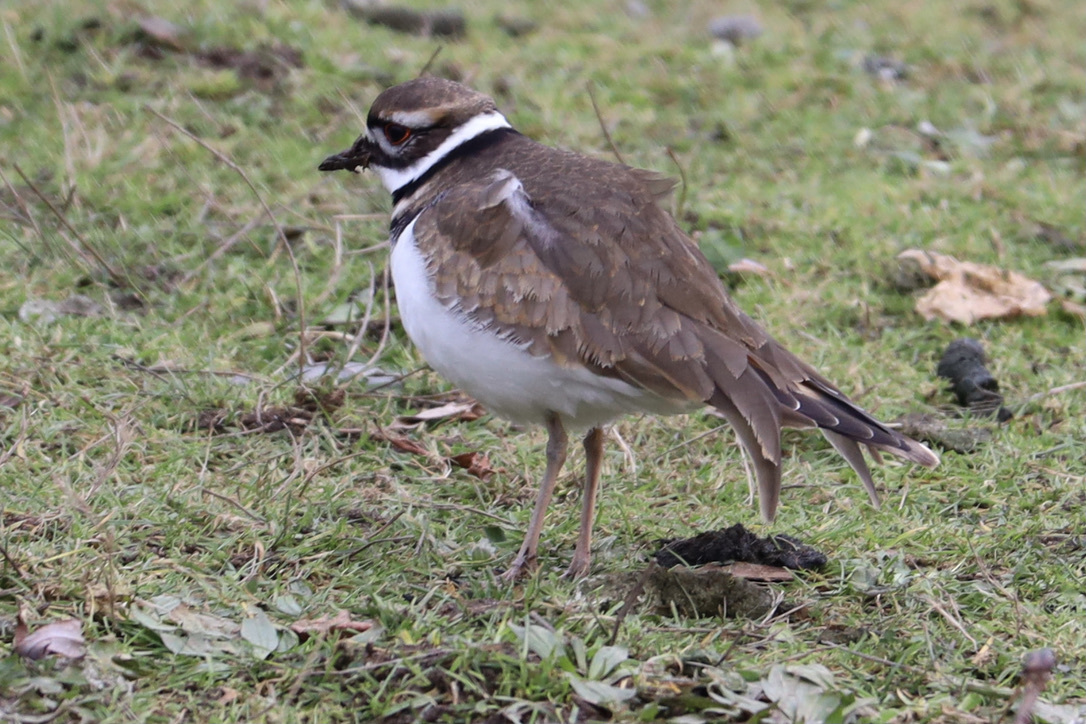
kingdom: Animalia
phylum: Chordata
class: Aves
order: Charadriiformes
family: Charadriidae
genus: Charadrius
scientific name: Charadrius vociferus
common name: Killdeer
